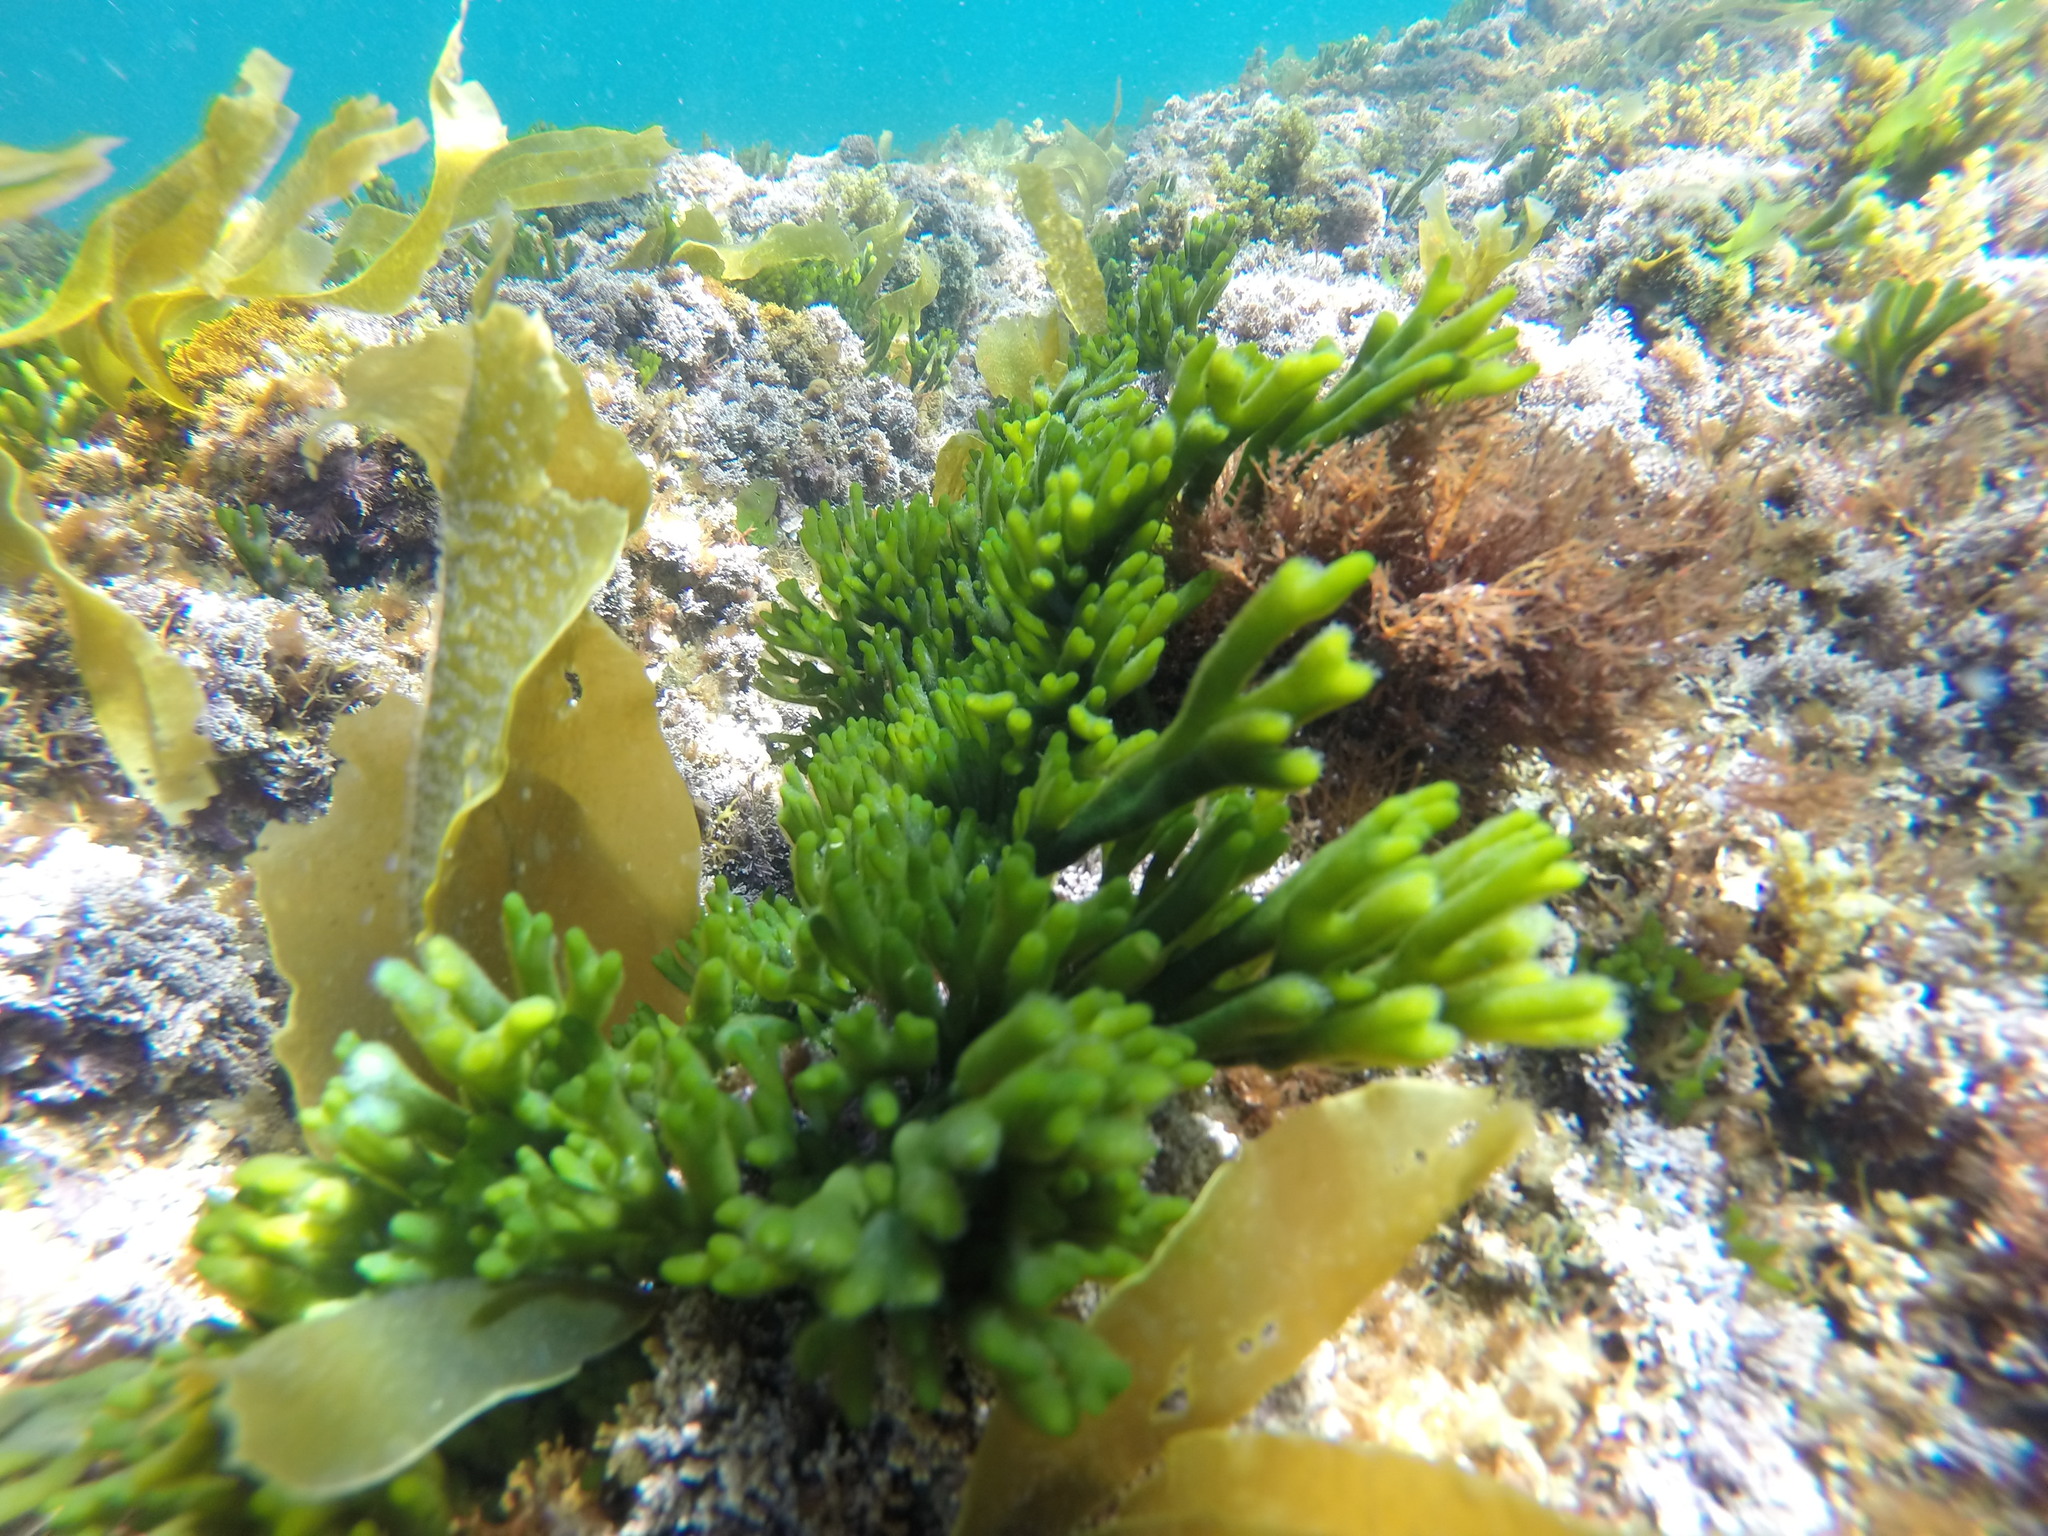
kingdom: Plantae
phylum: Chlorophyta
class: Ulvophyceae
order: Bryopsidales
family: Codiaceae
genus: Codium
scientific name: Codium tomentosum
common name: Velvet horn
